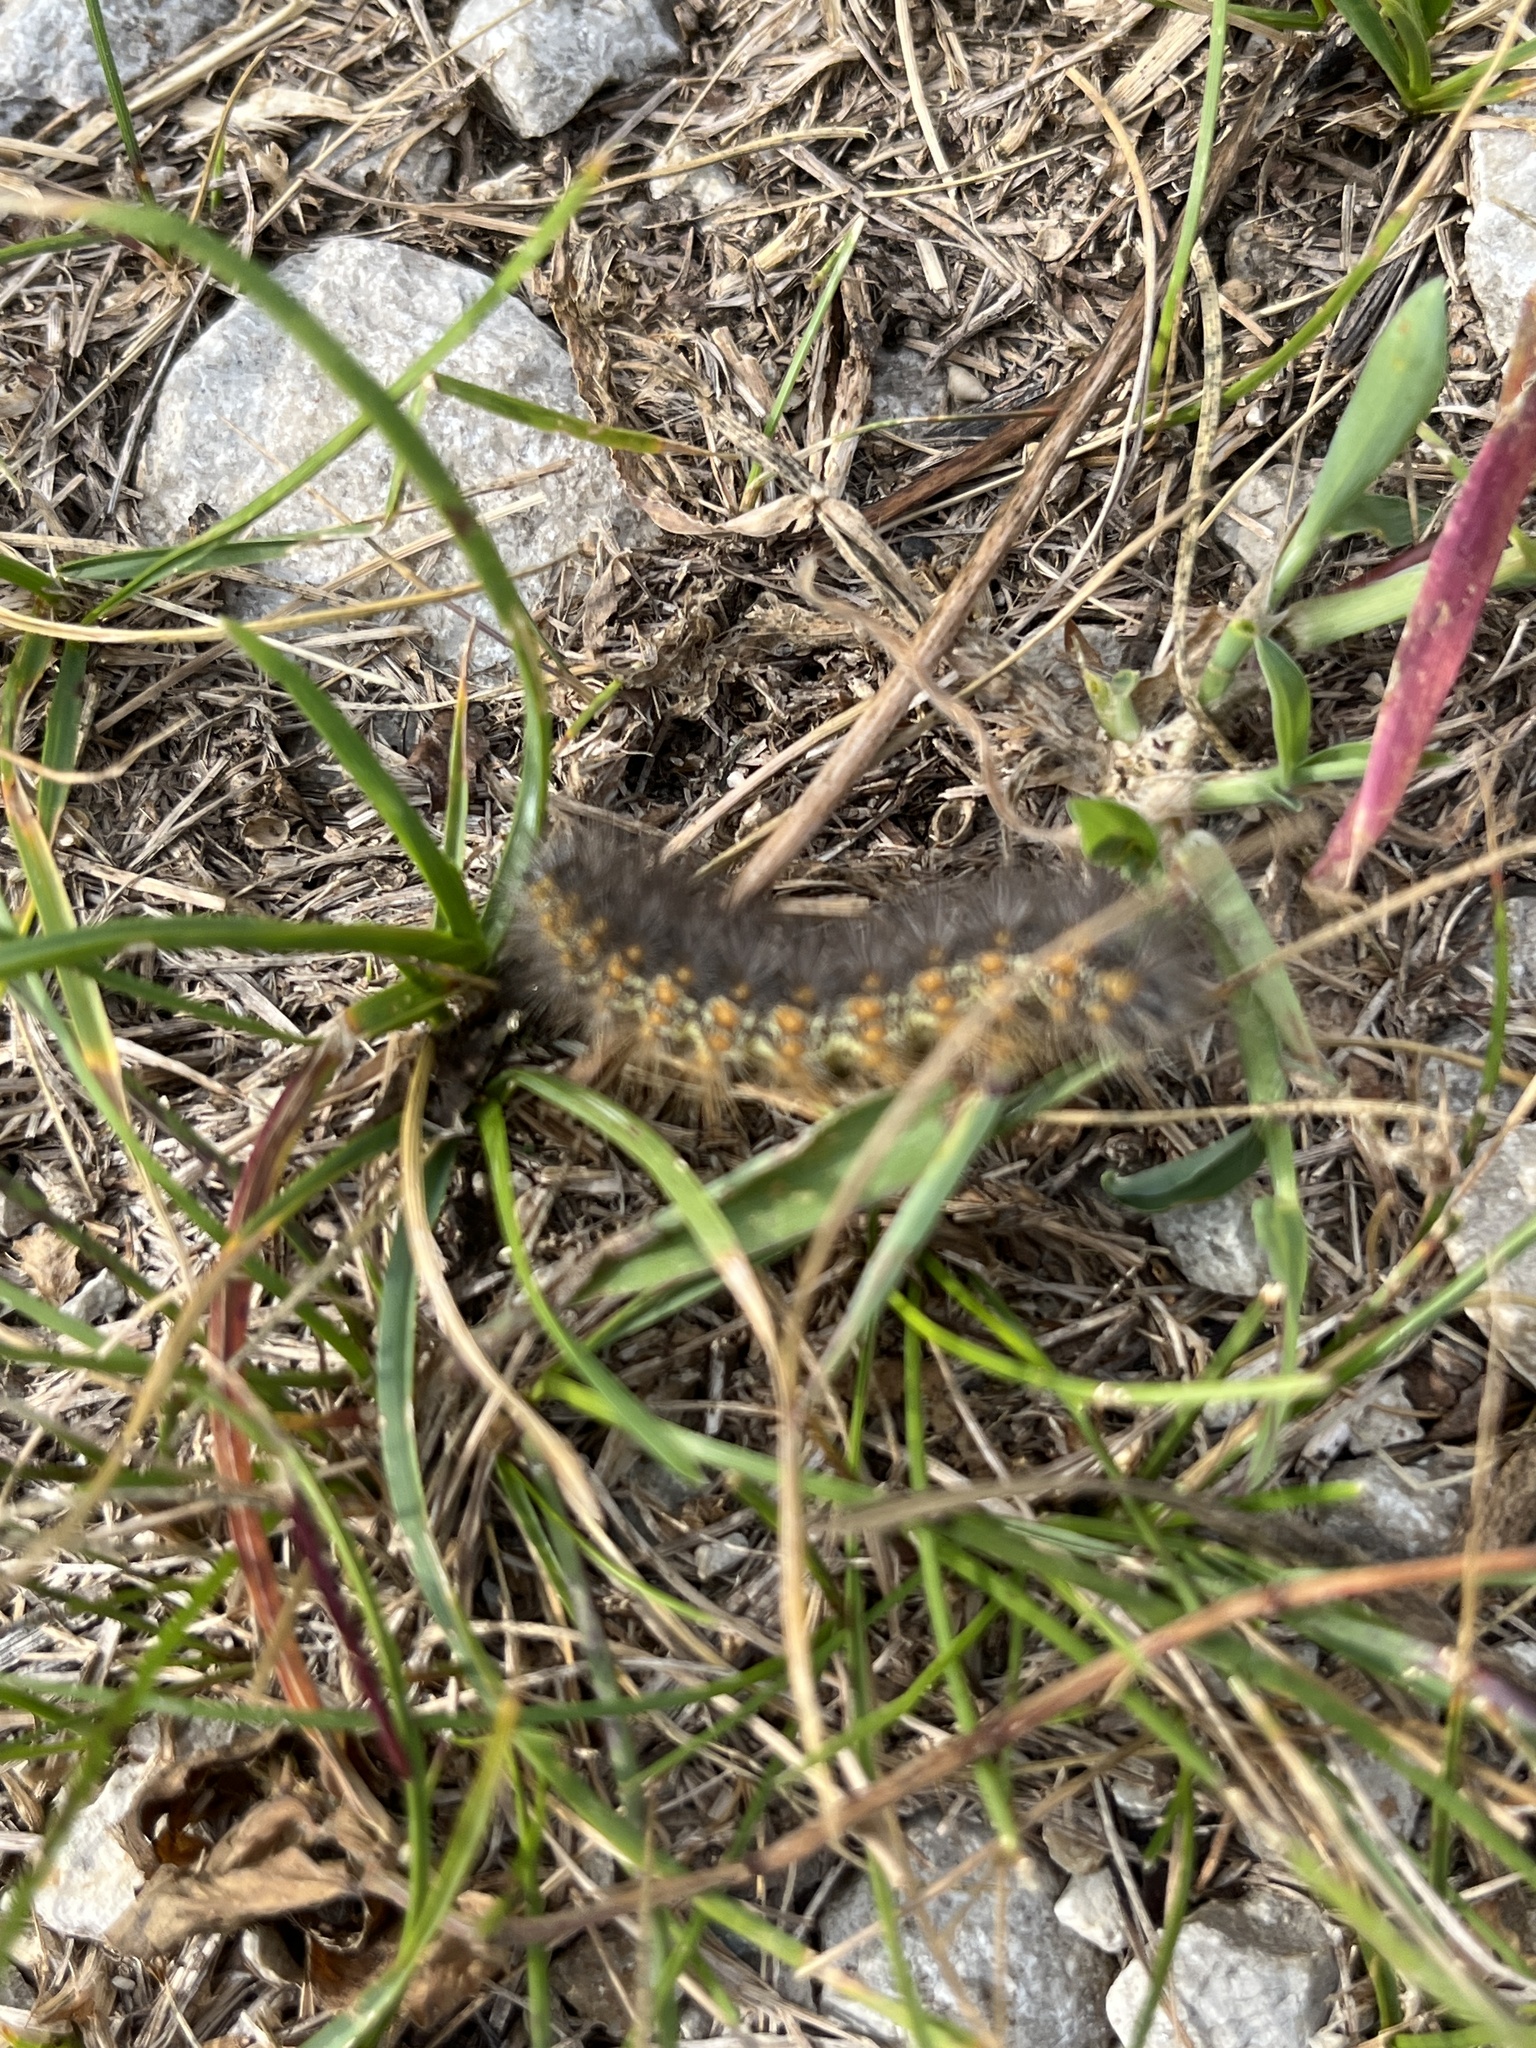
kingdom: Animalia
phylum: Arthropoda
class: Insecta
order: Lepidoptera
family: Erebidae
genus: Estigmene
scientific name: Estigmene acrea
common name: Salt marsh moth
